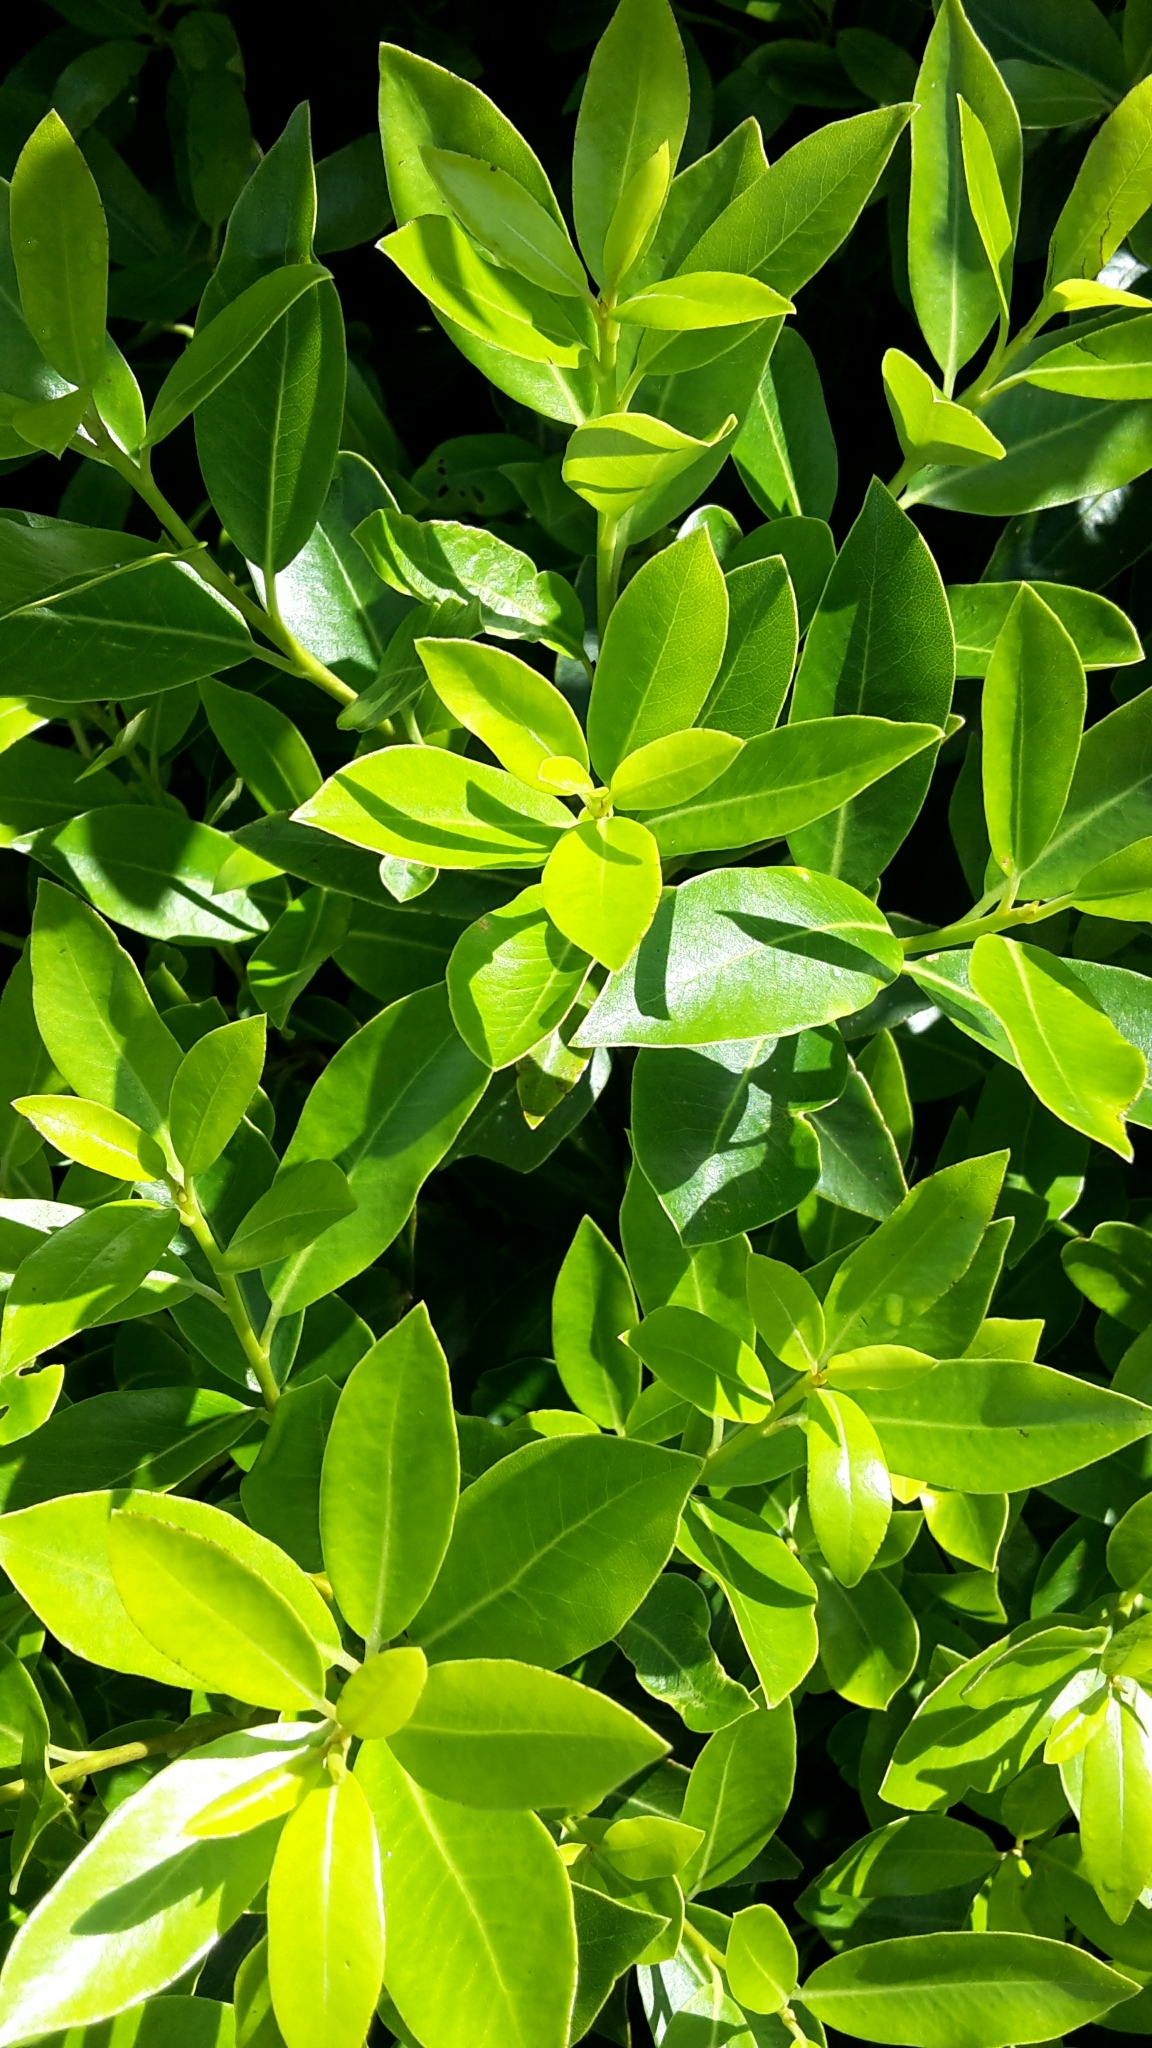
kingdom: Plantae
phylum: Tracheophyta
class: Magnoliopsida
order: Apiales
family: Pittosporaceae
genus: Pittosporum
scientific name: Pittosporum colensoi
